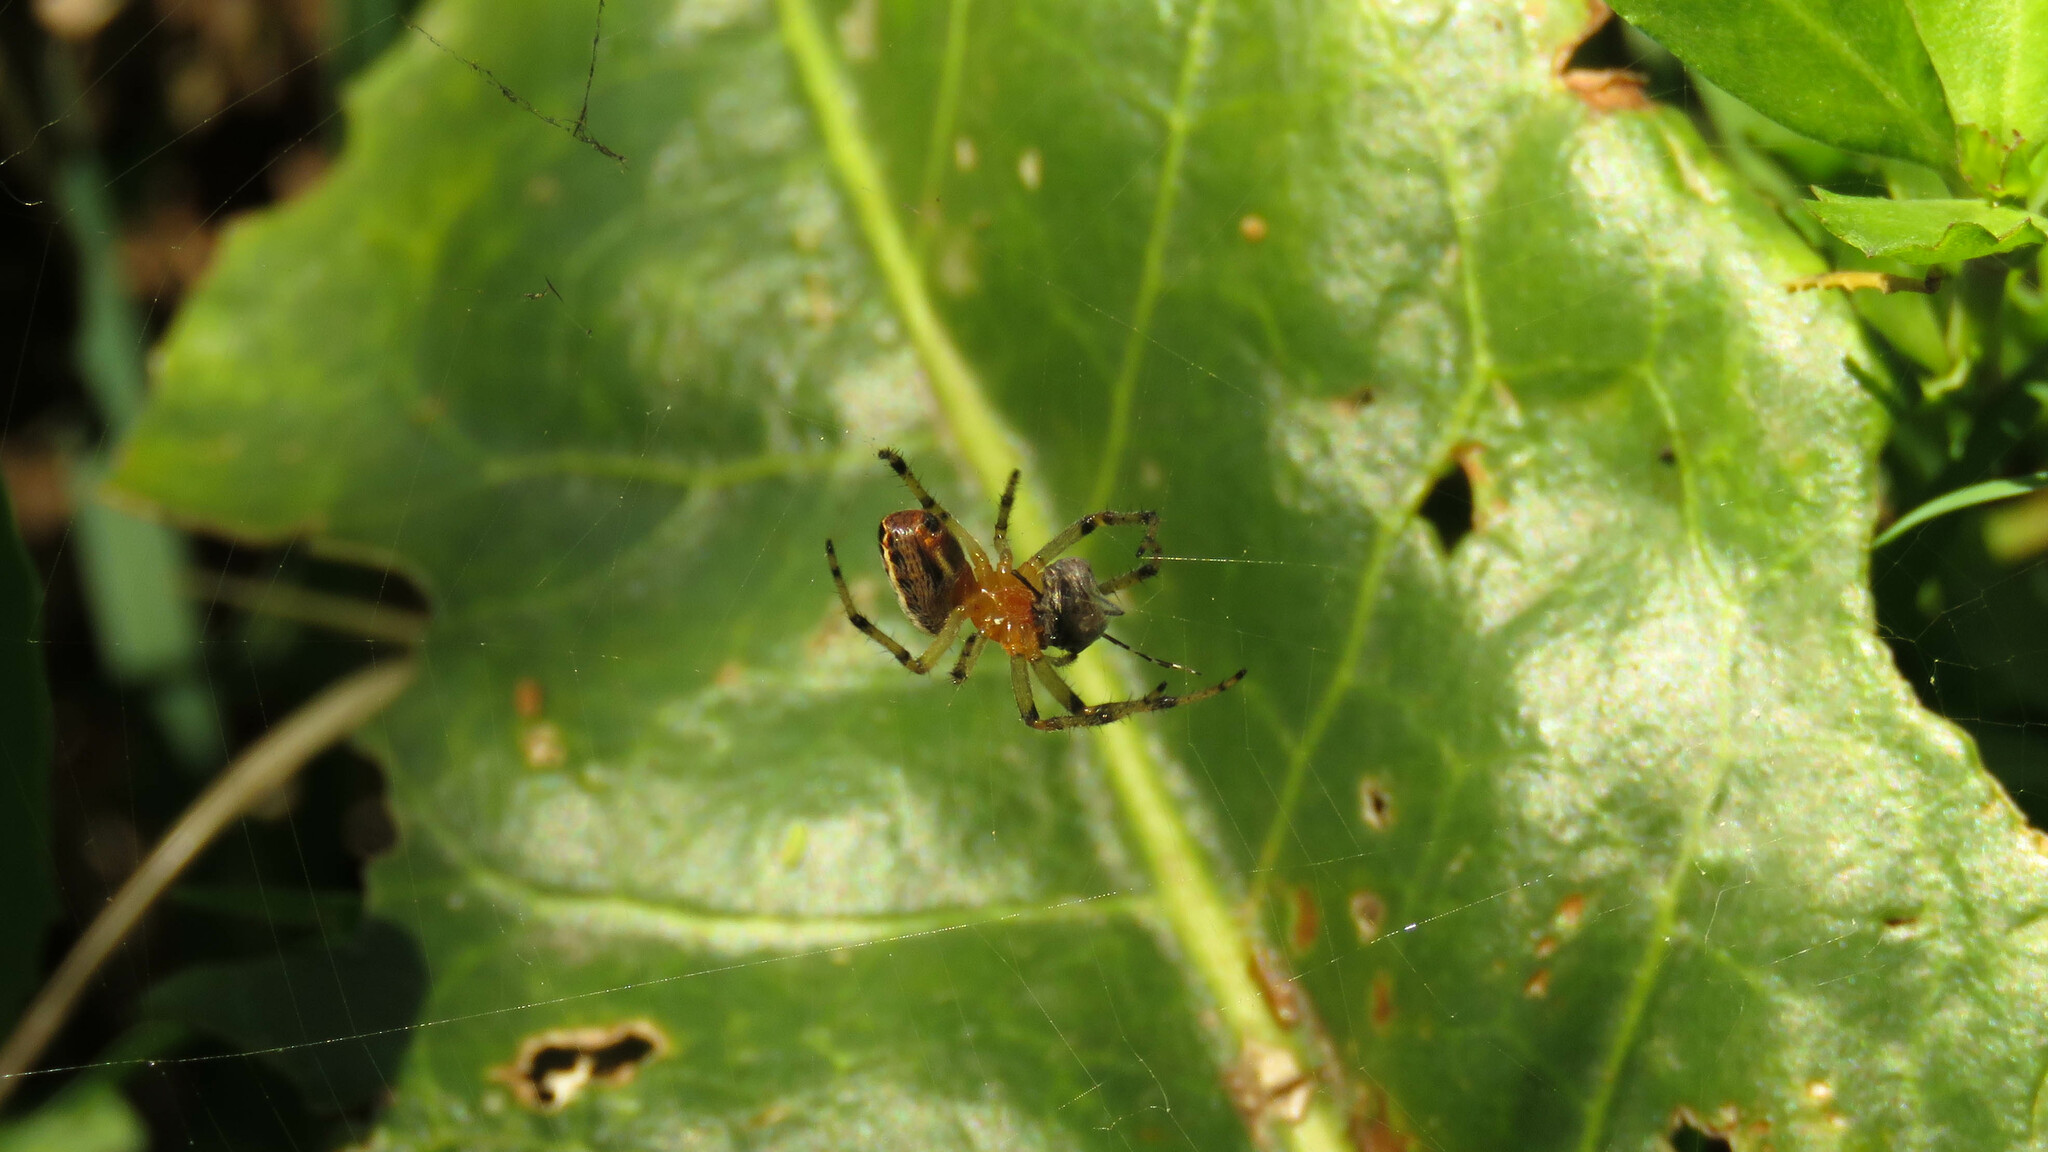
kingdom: Animalia
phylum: Arthropoda
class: Arachnida
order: Araneae
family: Araneidae
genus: Alpaida
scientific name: Alpaida veniliae
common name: Orb weavers
